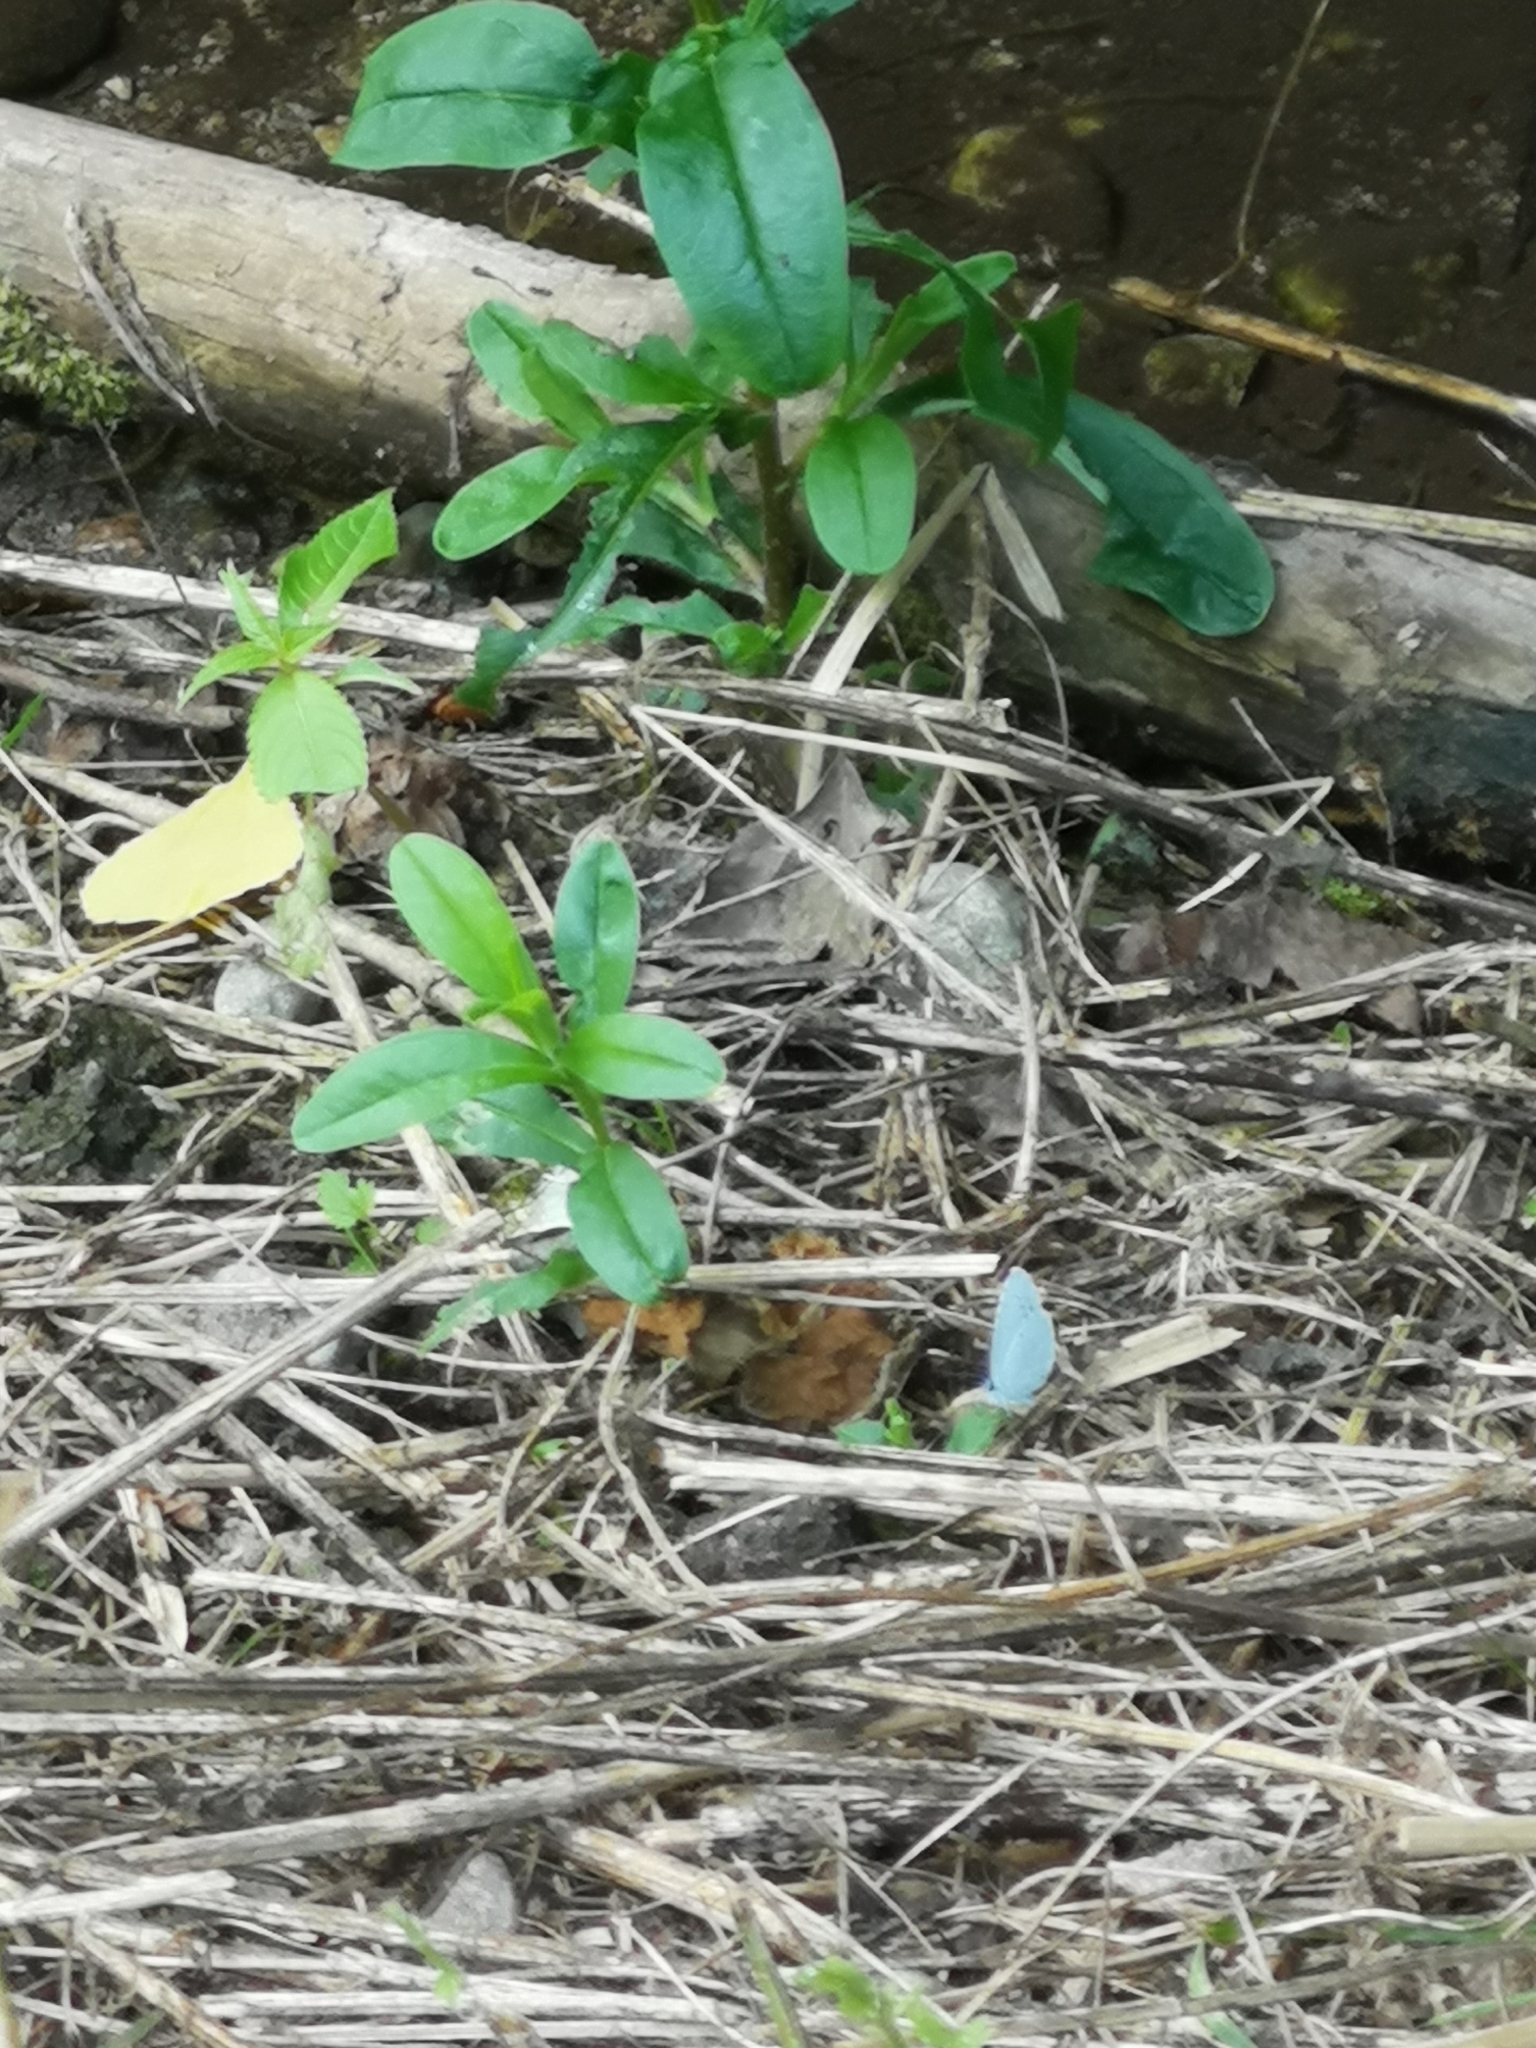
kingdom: Animalia
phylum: Arthropoda
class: Insecta
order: Lepidoptera
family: Lycaenidae
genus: Celastrina
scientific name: Celastrina argiolus
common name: Holly blue
